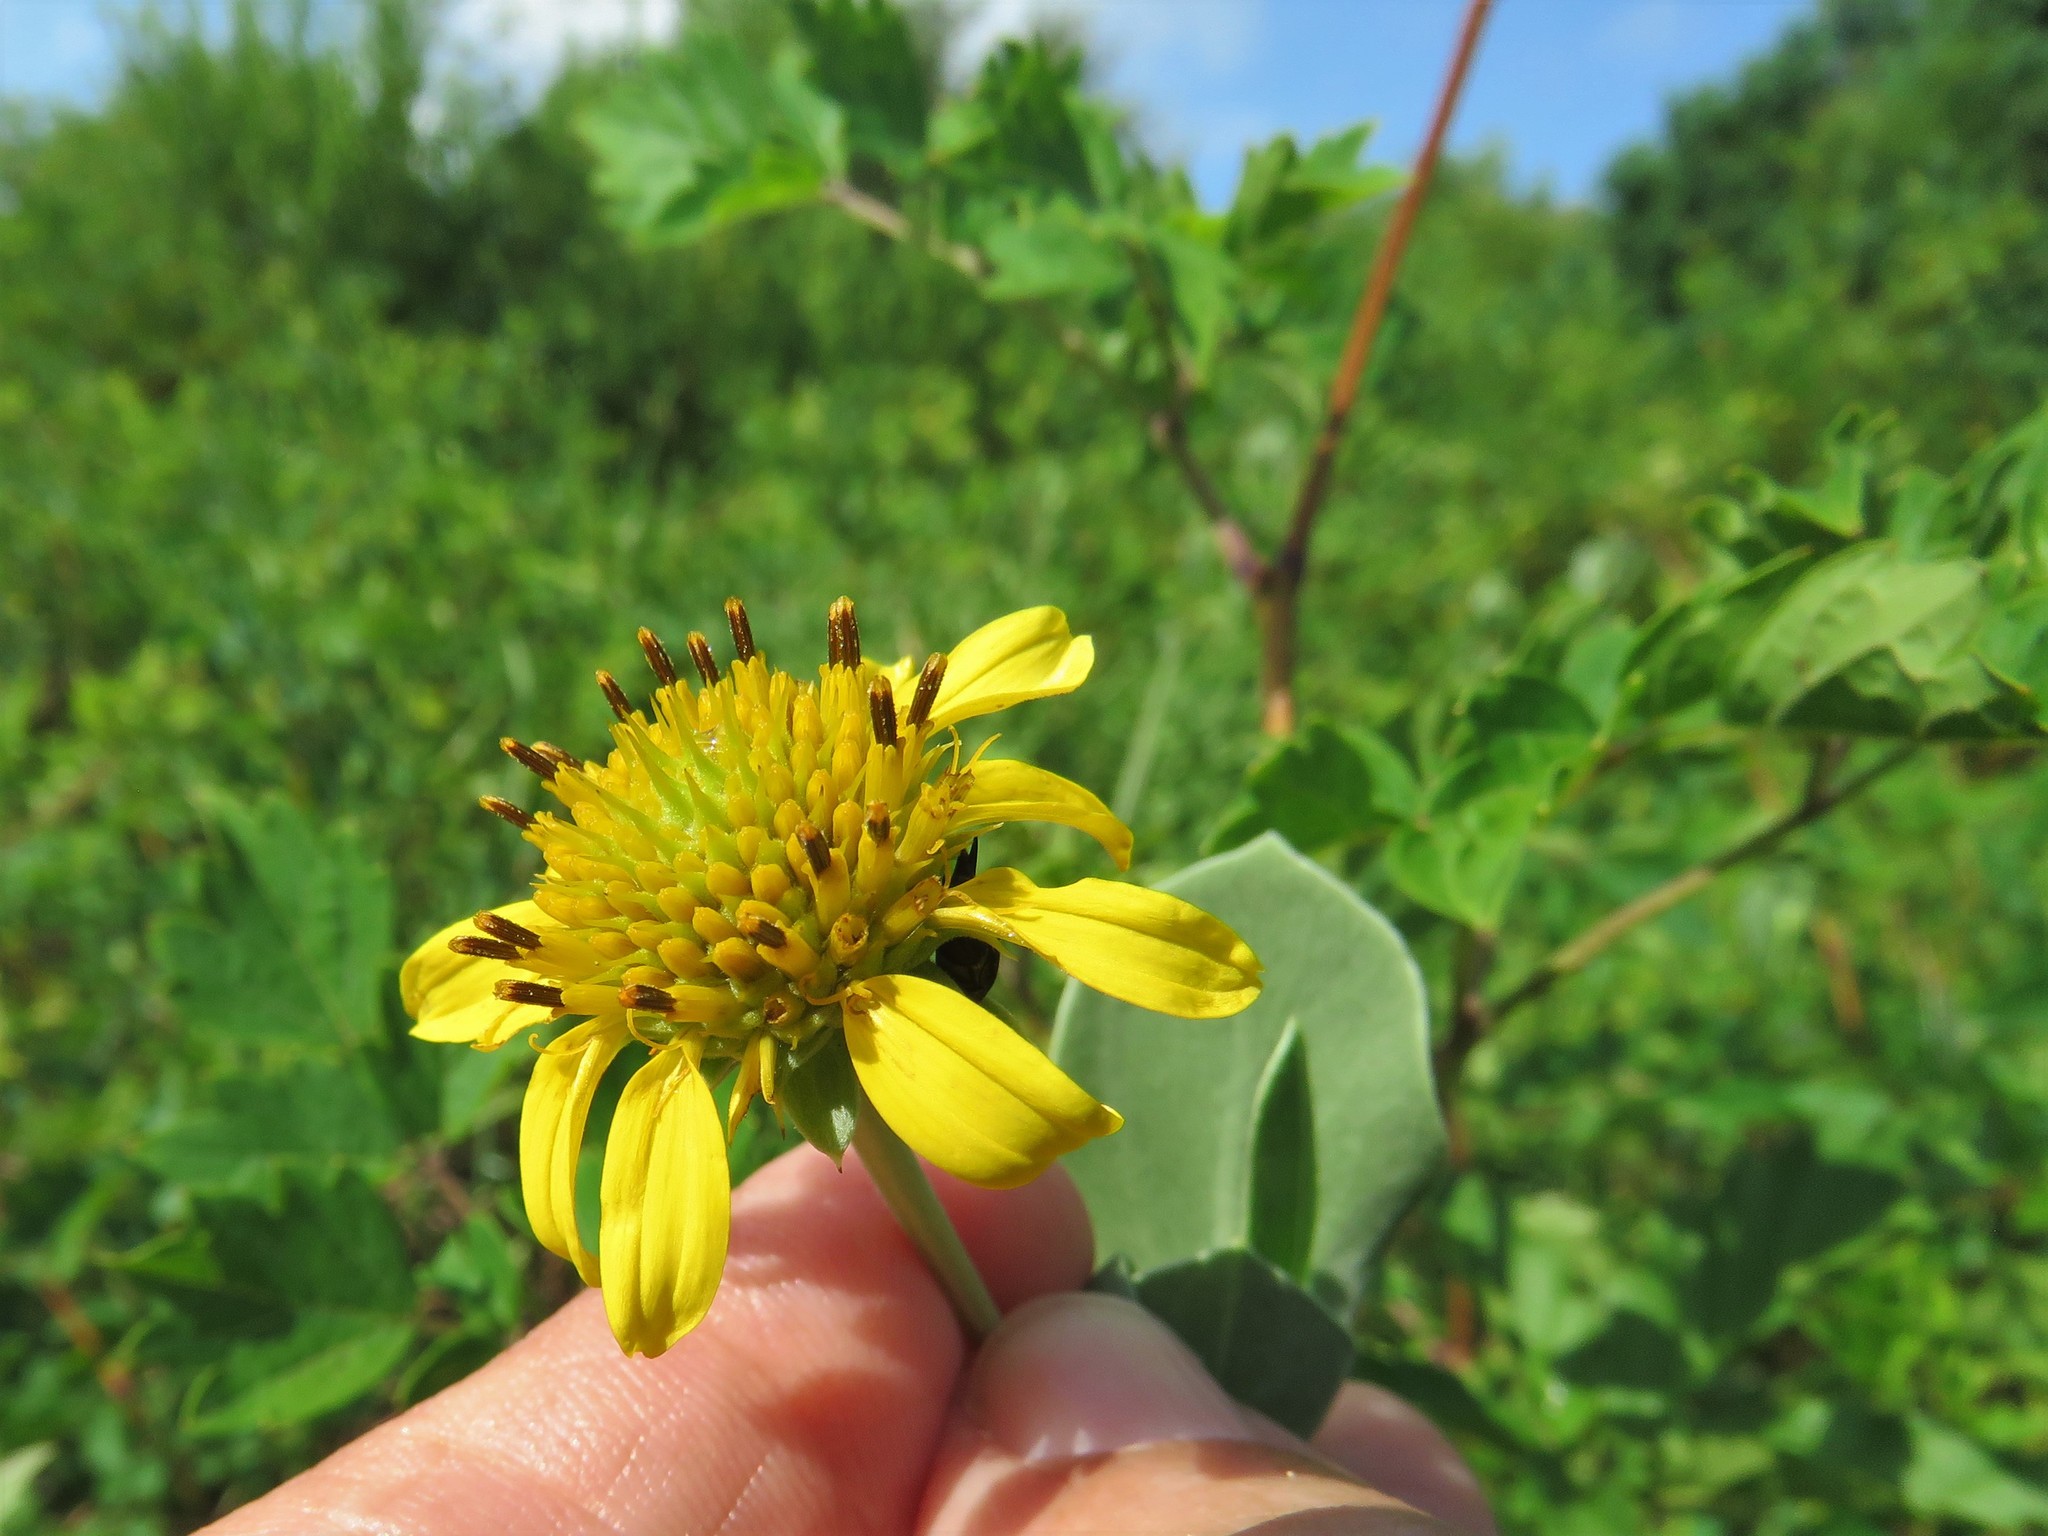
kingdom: Plantae
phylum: Tracheophyta
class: Magnoliopsida
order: Asterales
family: Asteraceae
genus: Borrichia
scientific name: Borrichia frutescens
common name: Sea oxeye
